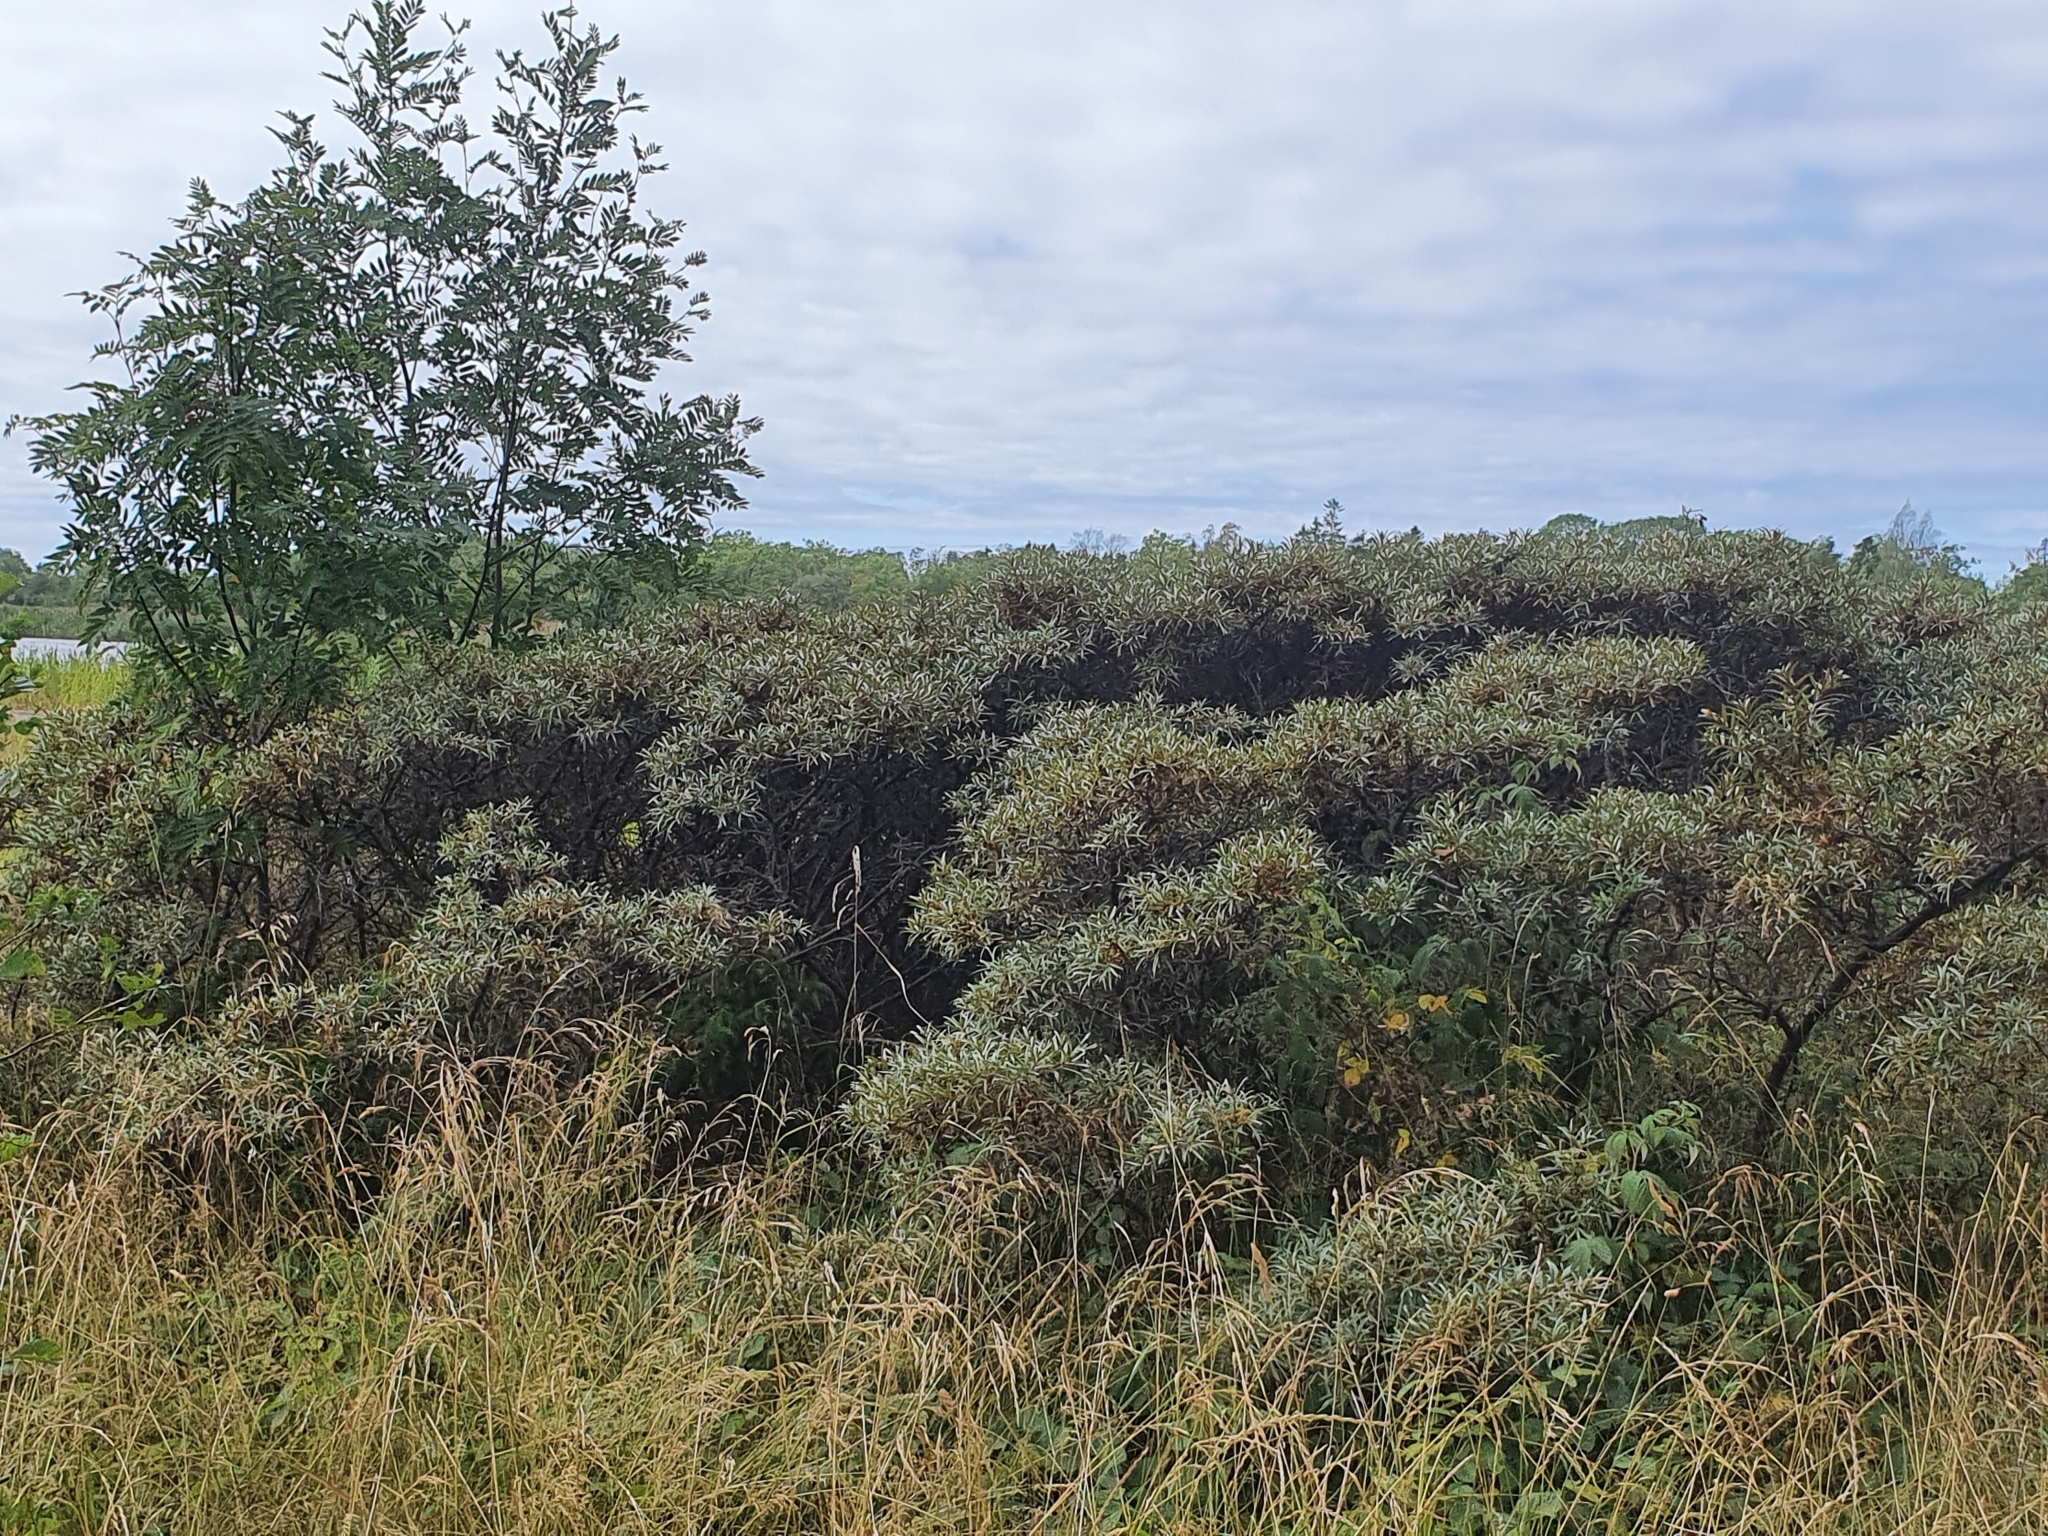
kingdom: Plantae
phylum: Tracheophyta
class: Magnoliopsida
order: Rosales
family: Elaeagnaceae
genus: Hippophae
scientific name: Hippophae rhamnoides
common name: Sea-buckthorn
